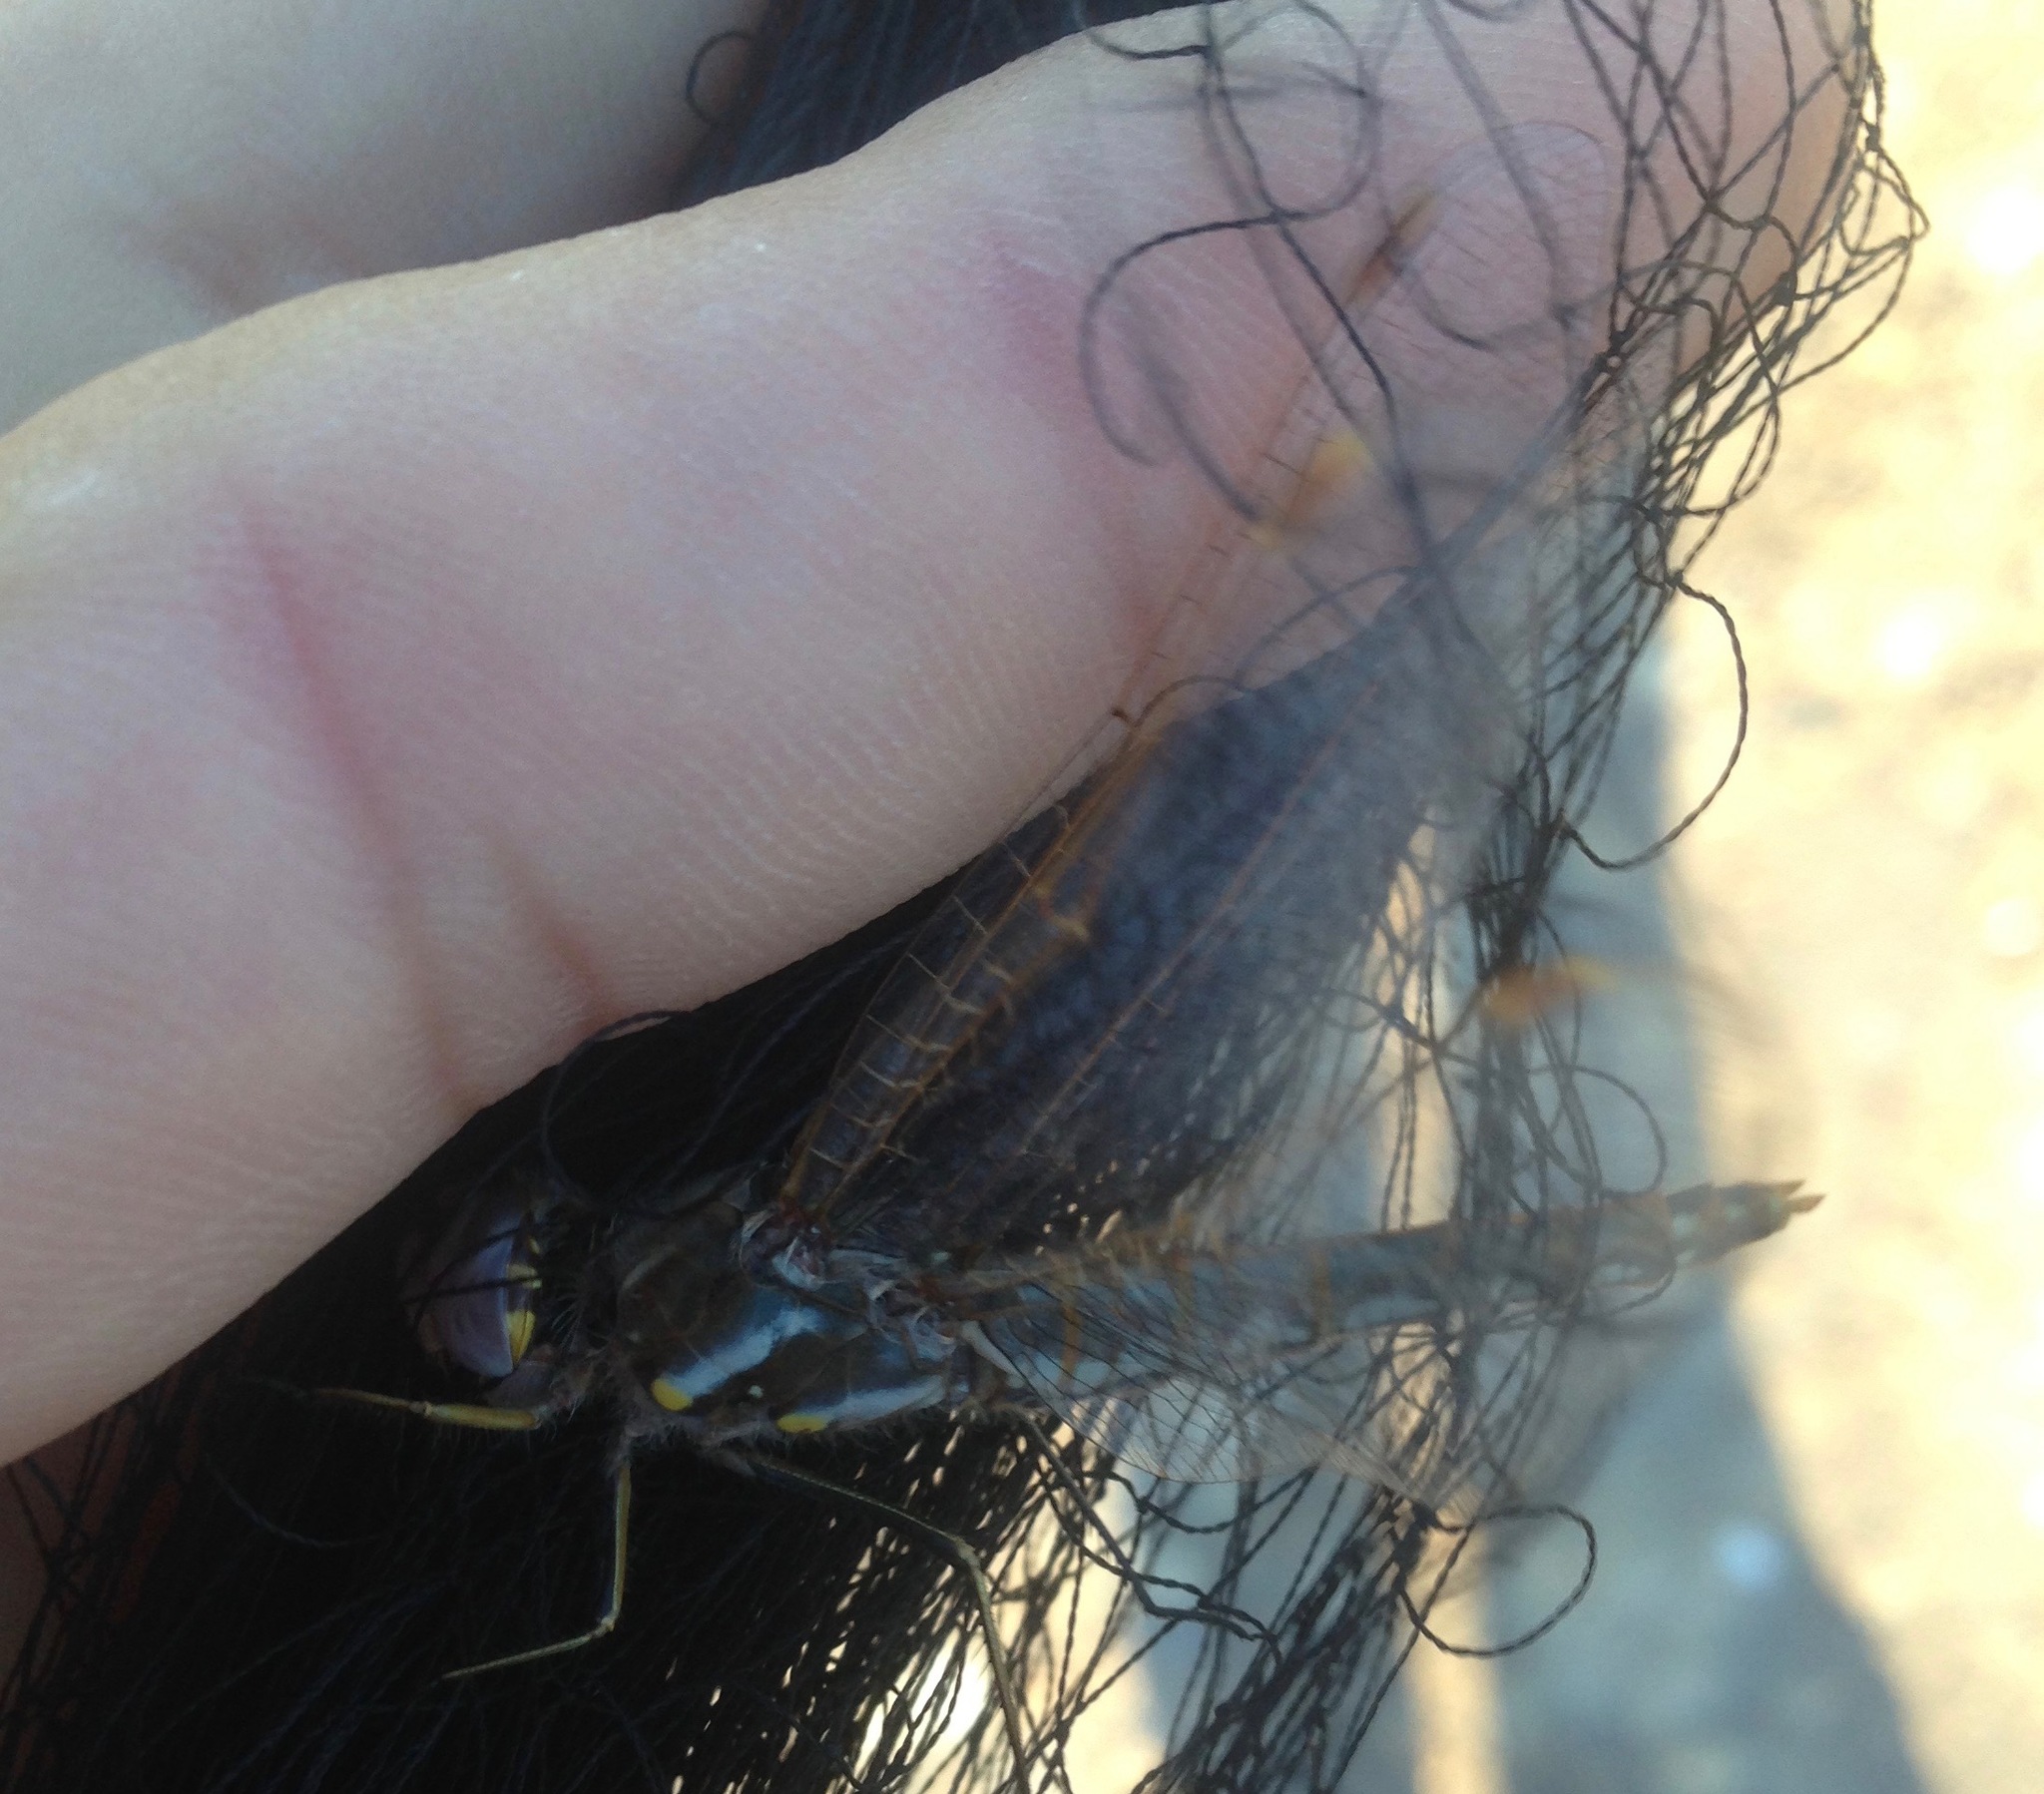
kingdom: Animalia
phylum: Arthropoda
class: Insecta
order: Odonata
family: Libellulidae
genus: Sympetrum
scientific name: Sympetrum corruptum
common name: Variegated meadowhawk
